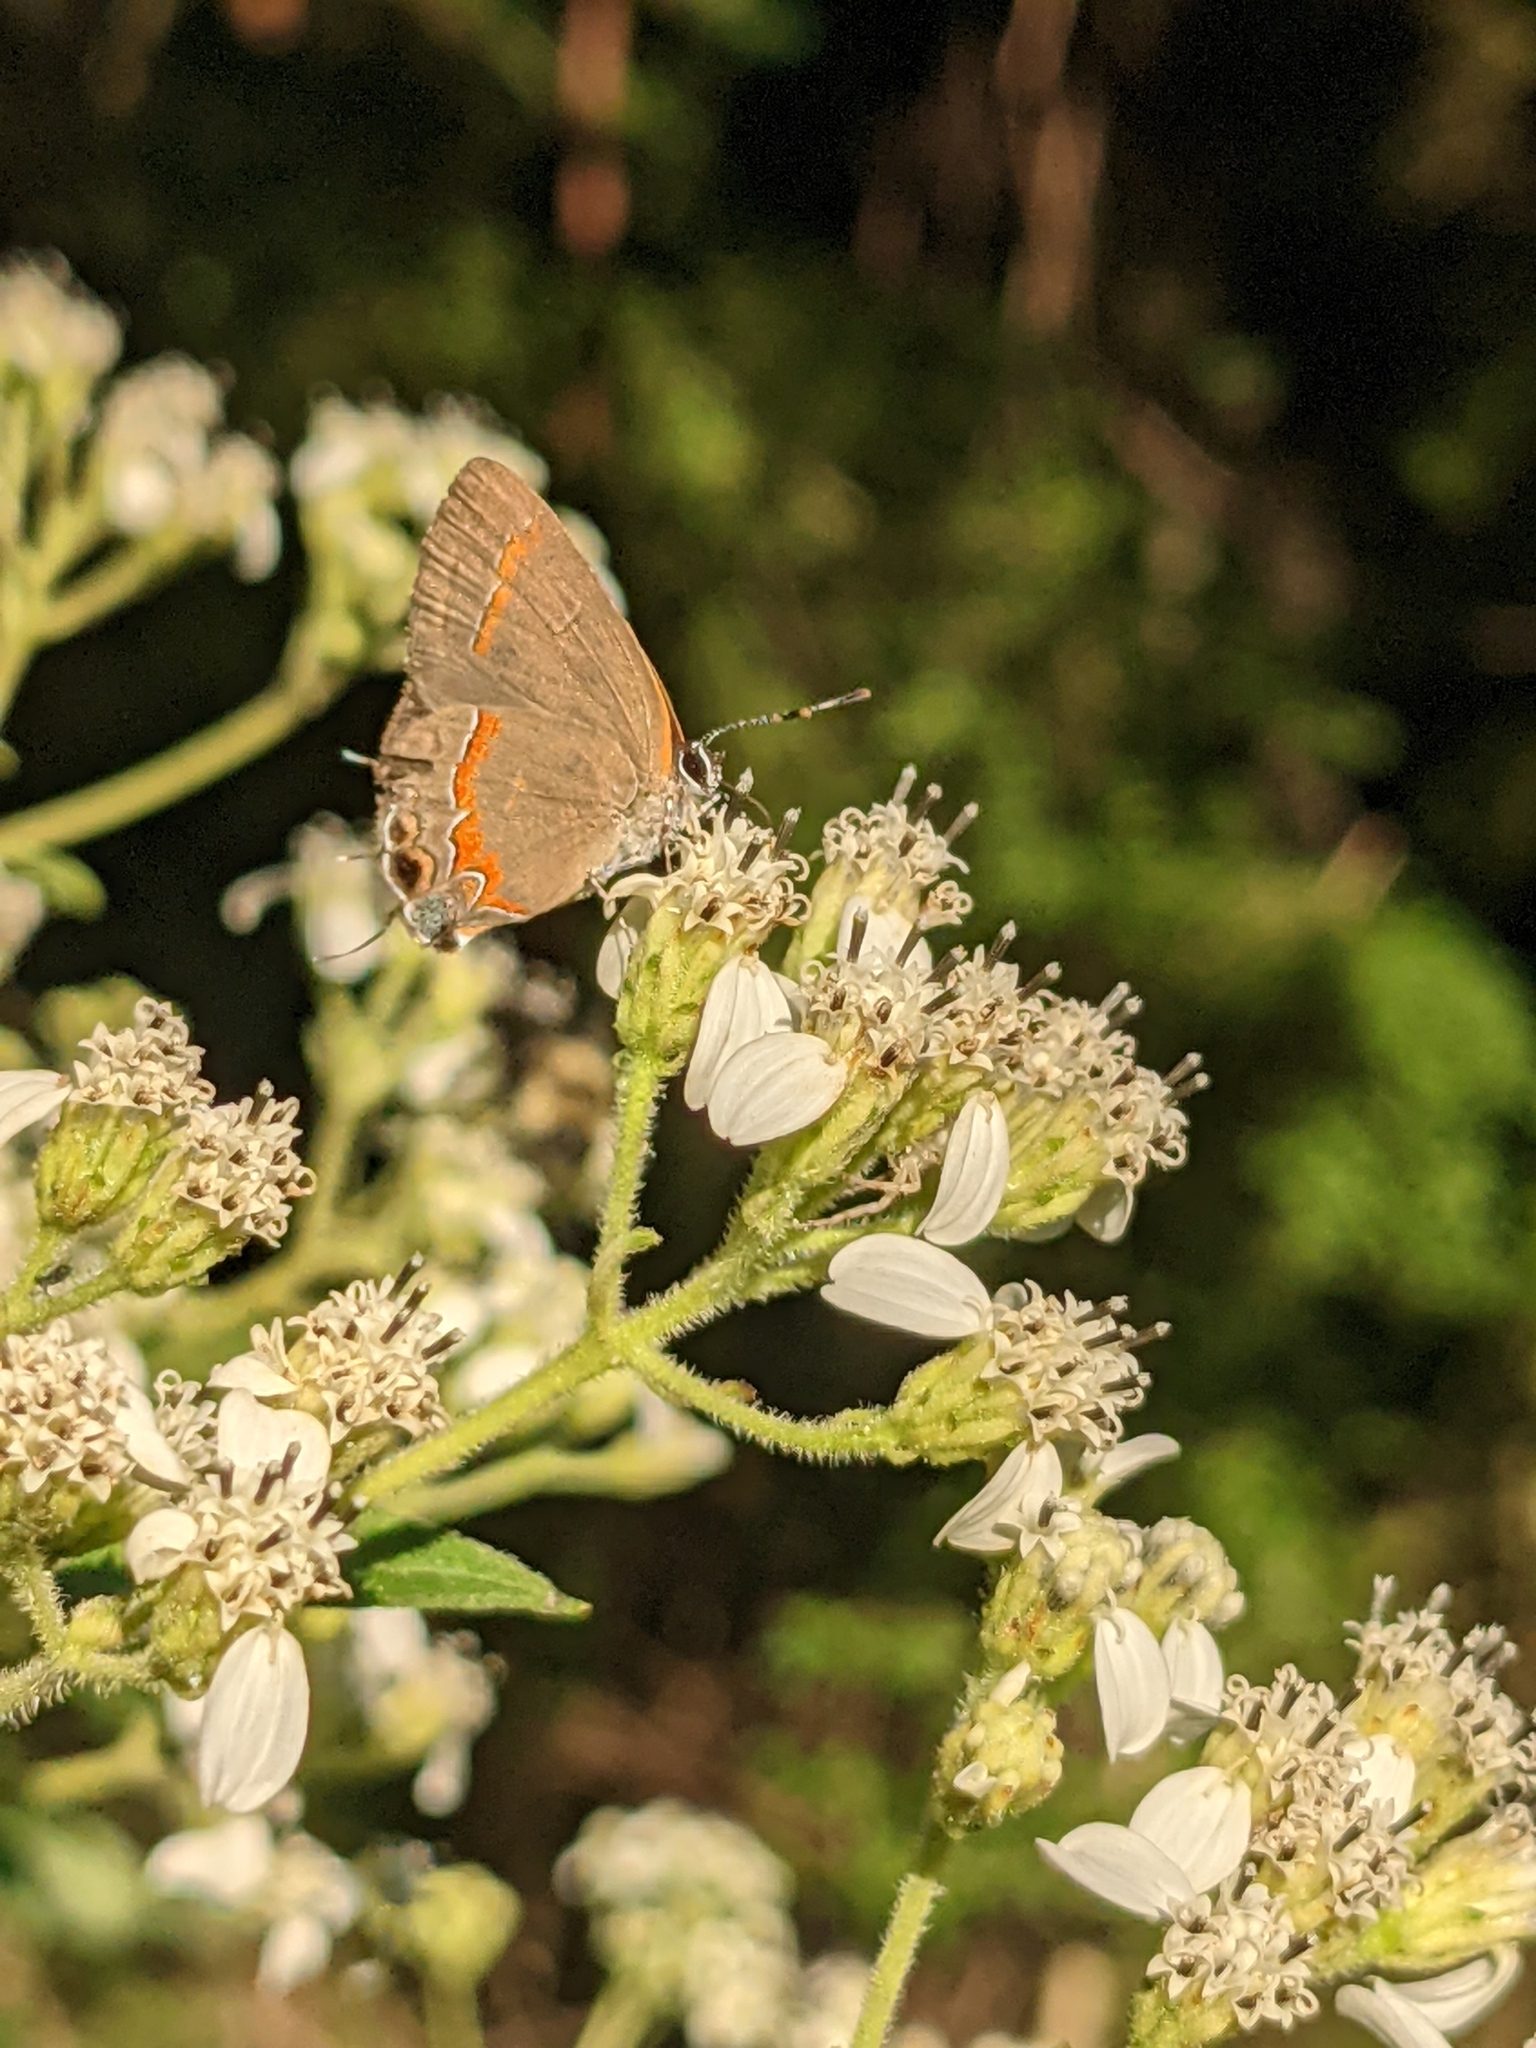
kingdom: Animalia
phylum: Arthropoda
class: Insecta
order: Lepidoptera
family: Lycaenidae
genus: Calycopis
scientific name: Calycopis cecrops
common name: Red-banded hairstreak
